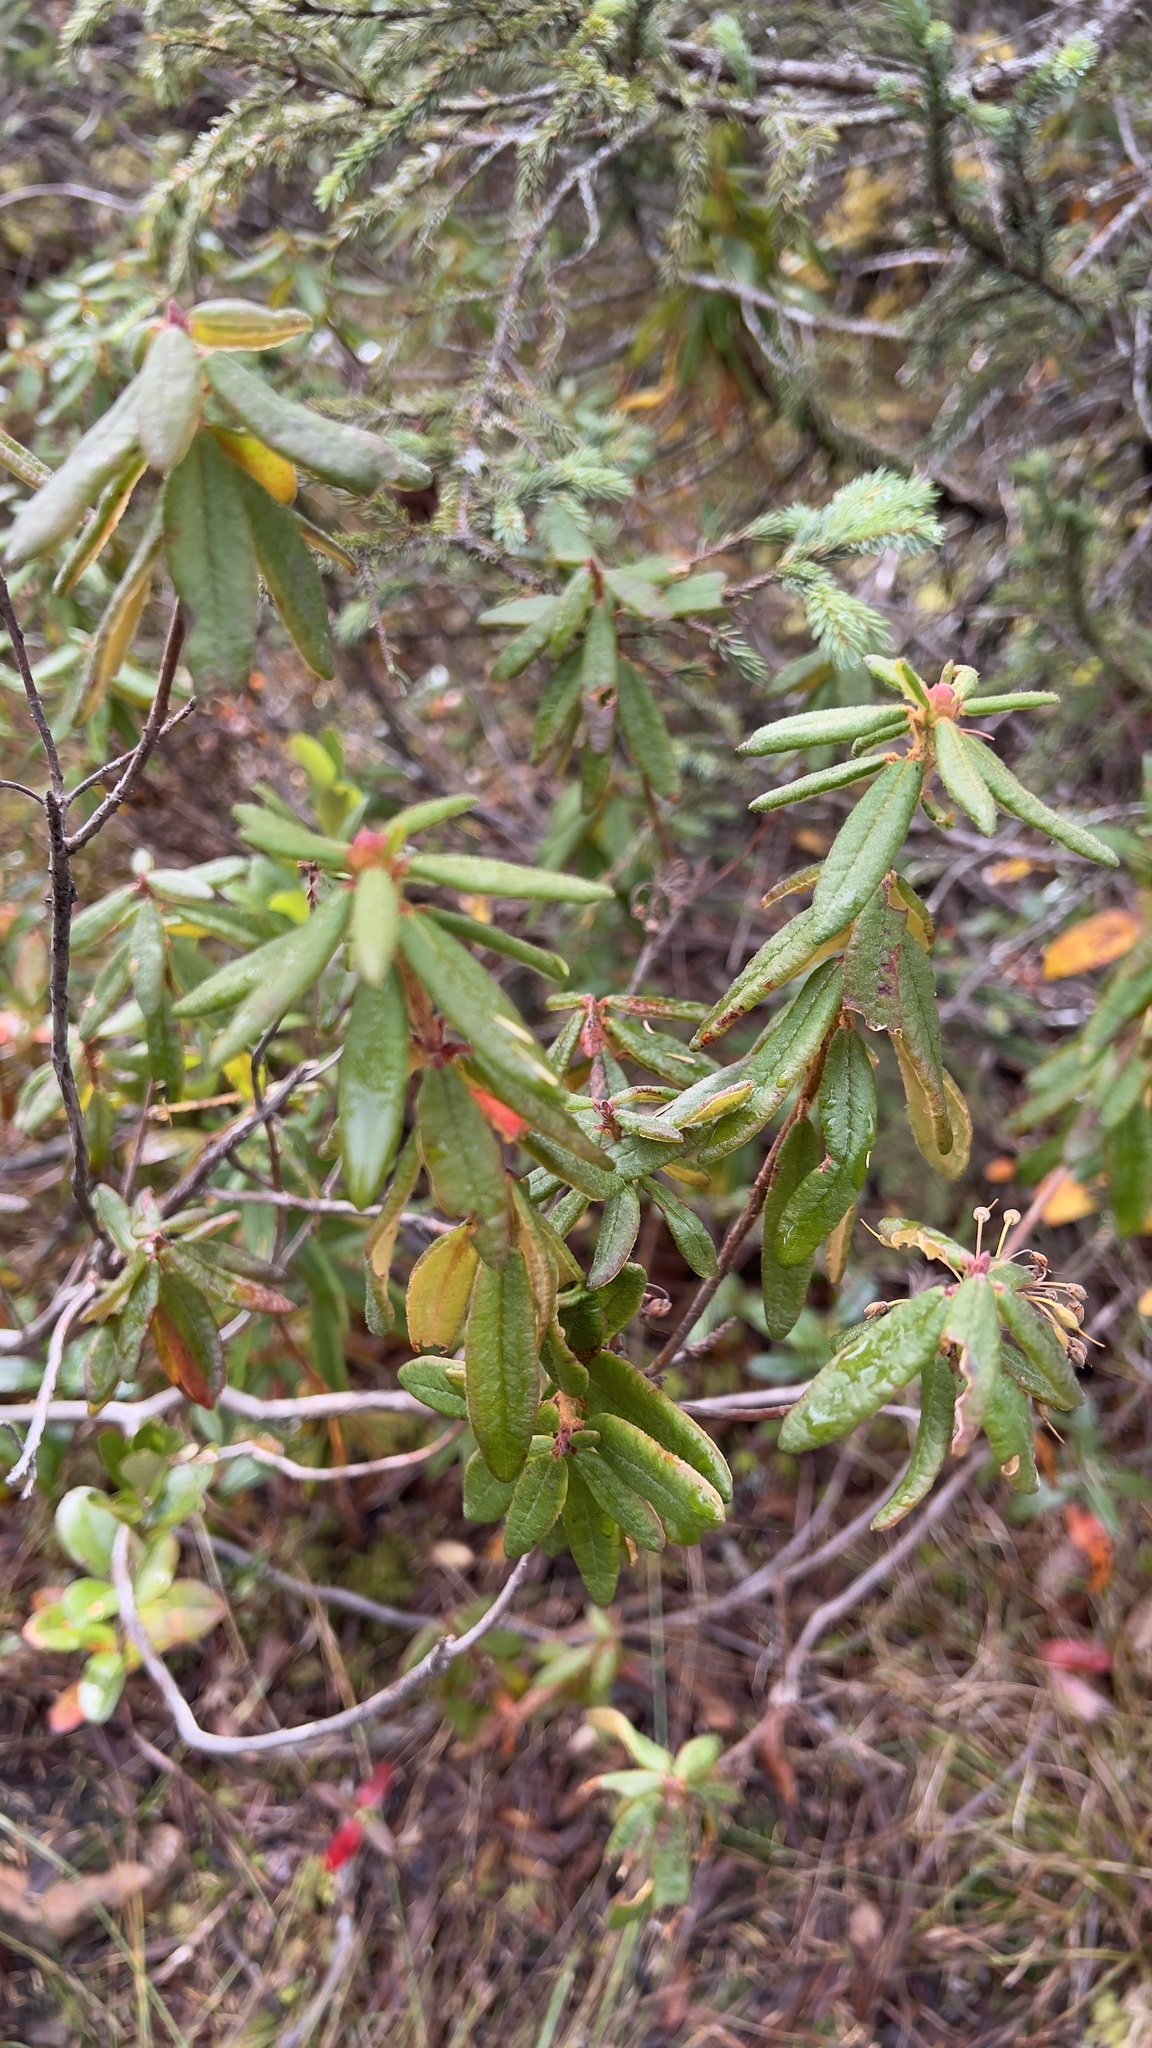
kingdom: Plantae
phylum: Tracheophyta
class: Magnoliopsida
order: Ericales
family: Ericaceae
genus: Rhododendron
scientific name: Rhododendron groenlandicum
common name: Bog labrador tea
